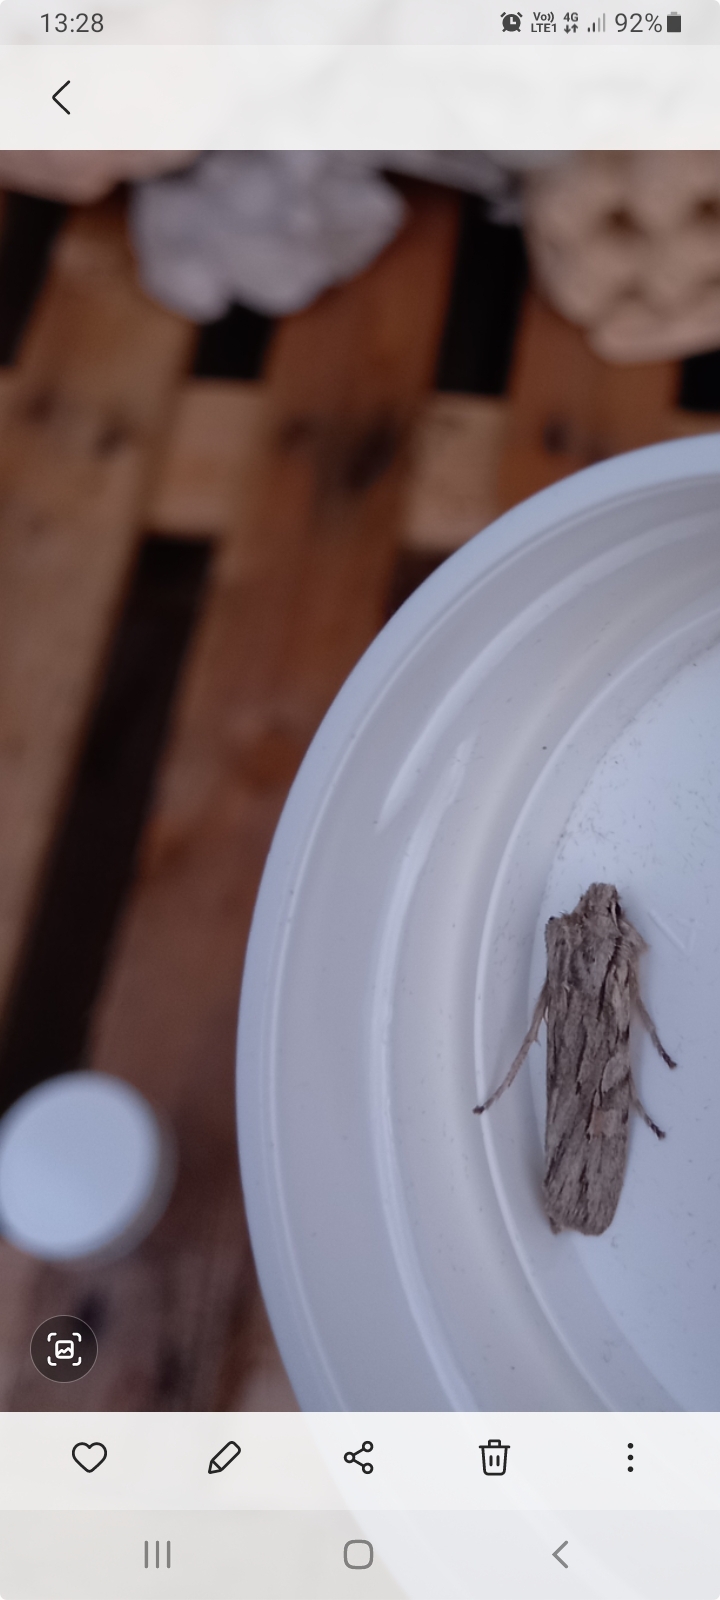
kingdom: Animalia
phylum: Arthropoda
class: Insecta
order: Lepidoptera
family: Noctuidae
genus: Lithophane
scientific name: Lithophane leautieri
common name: Blair's shoulder-knot
